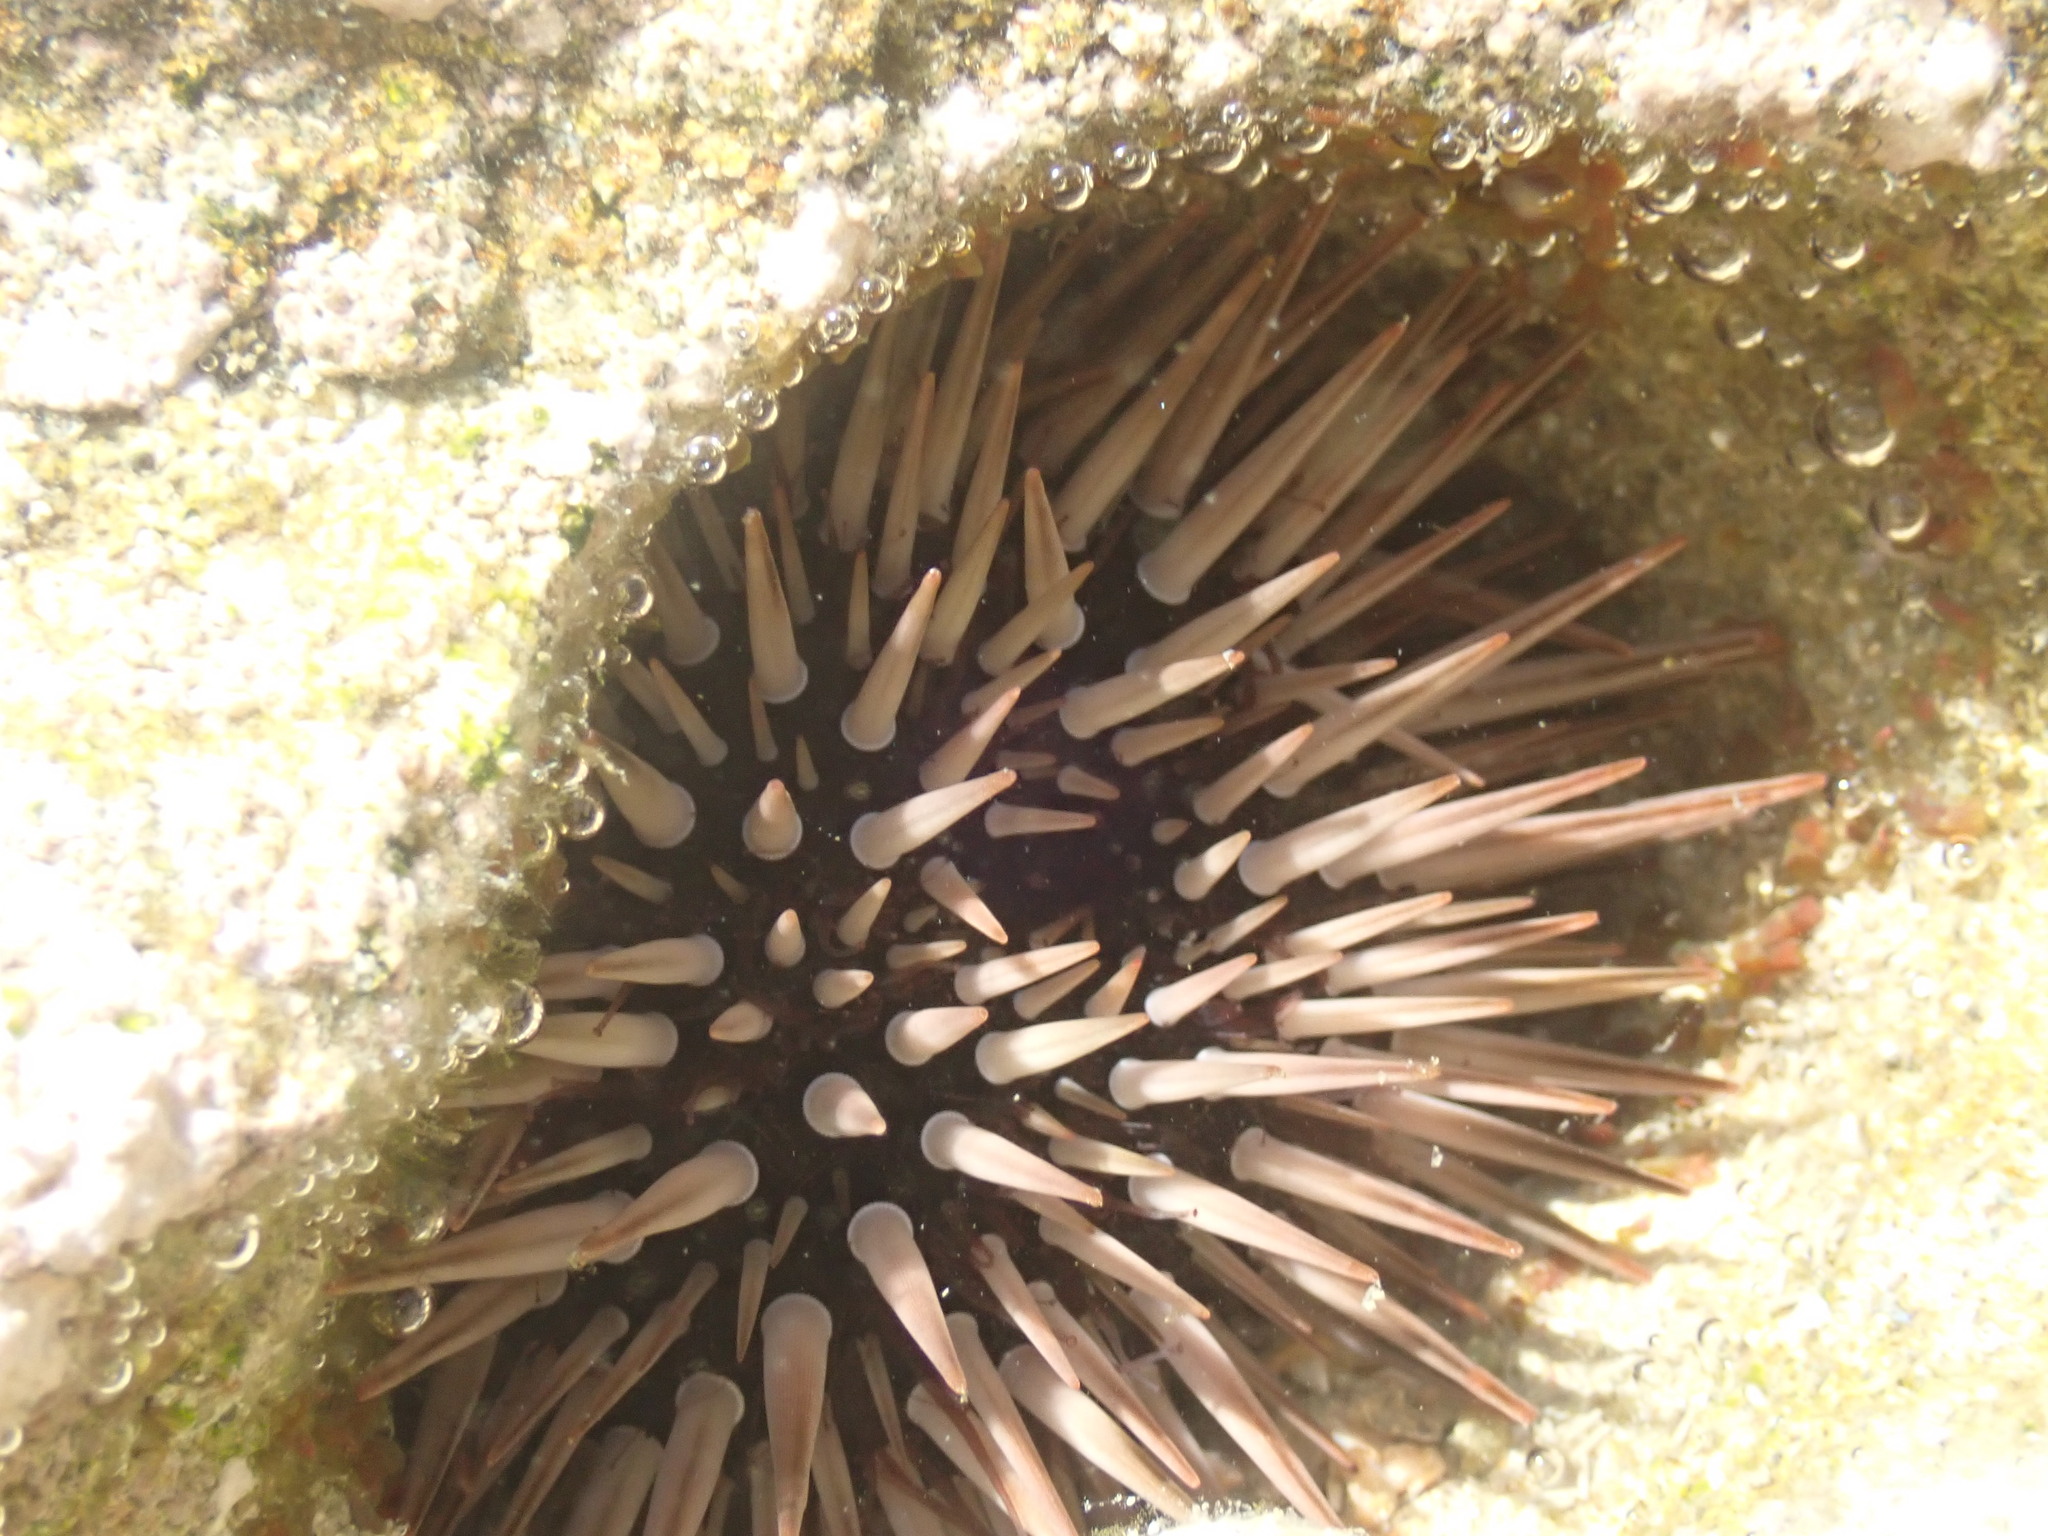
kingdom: Animalia
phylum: Echinodermata
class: Echinoidea
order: Camarodonta
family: Echinometridae
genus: Echinometra
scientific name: Echinometra mathaei
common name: Rock-boring urchin
